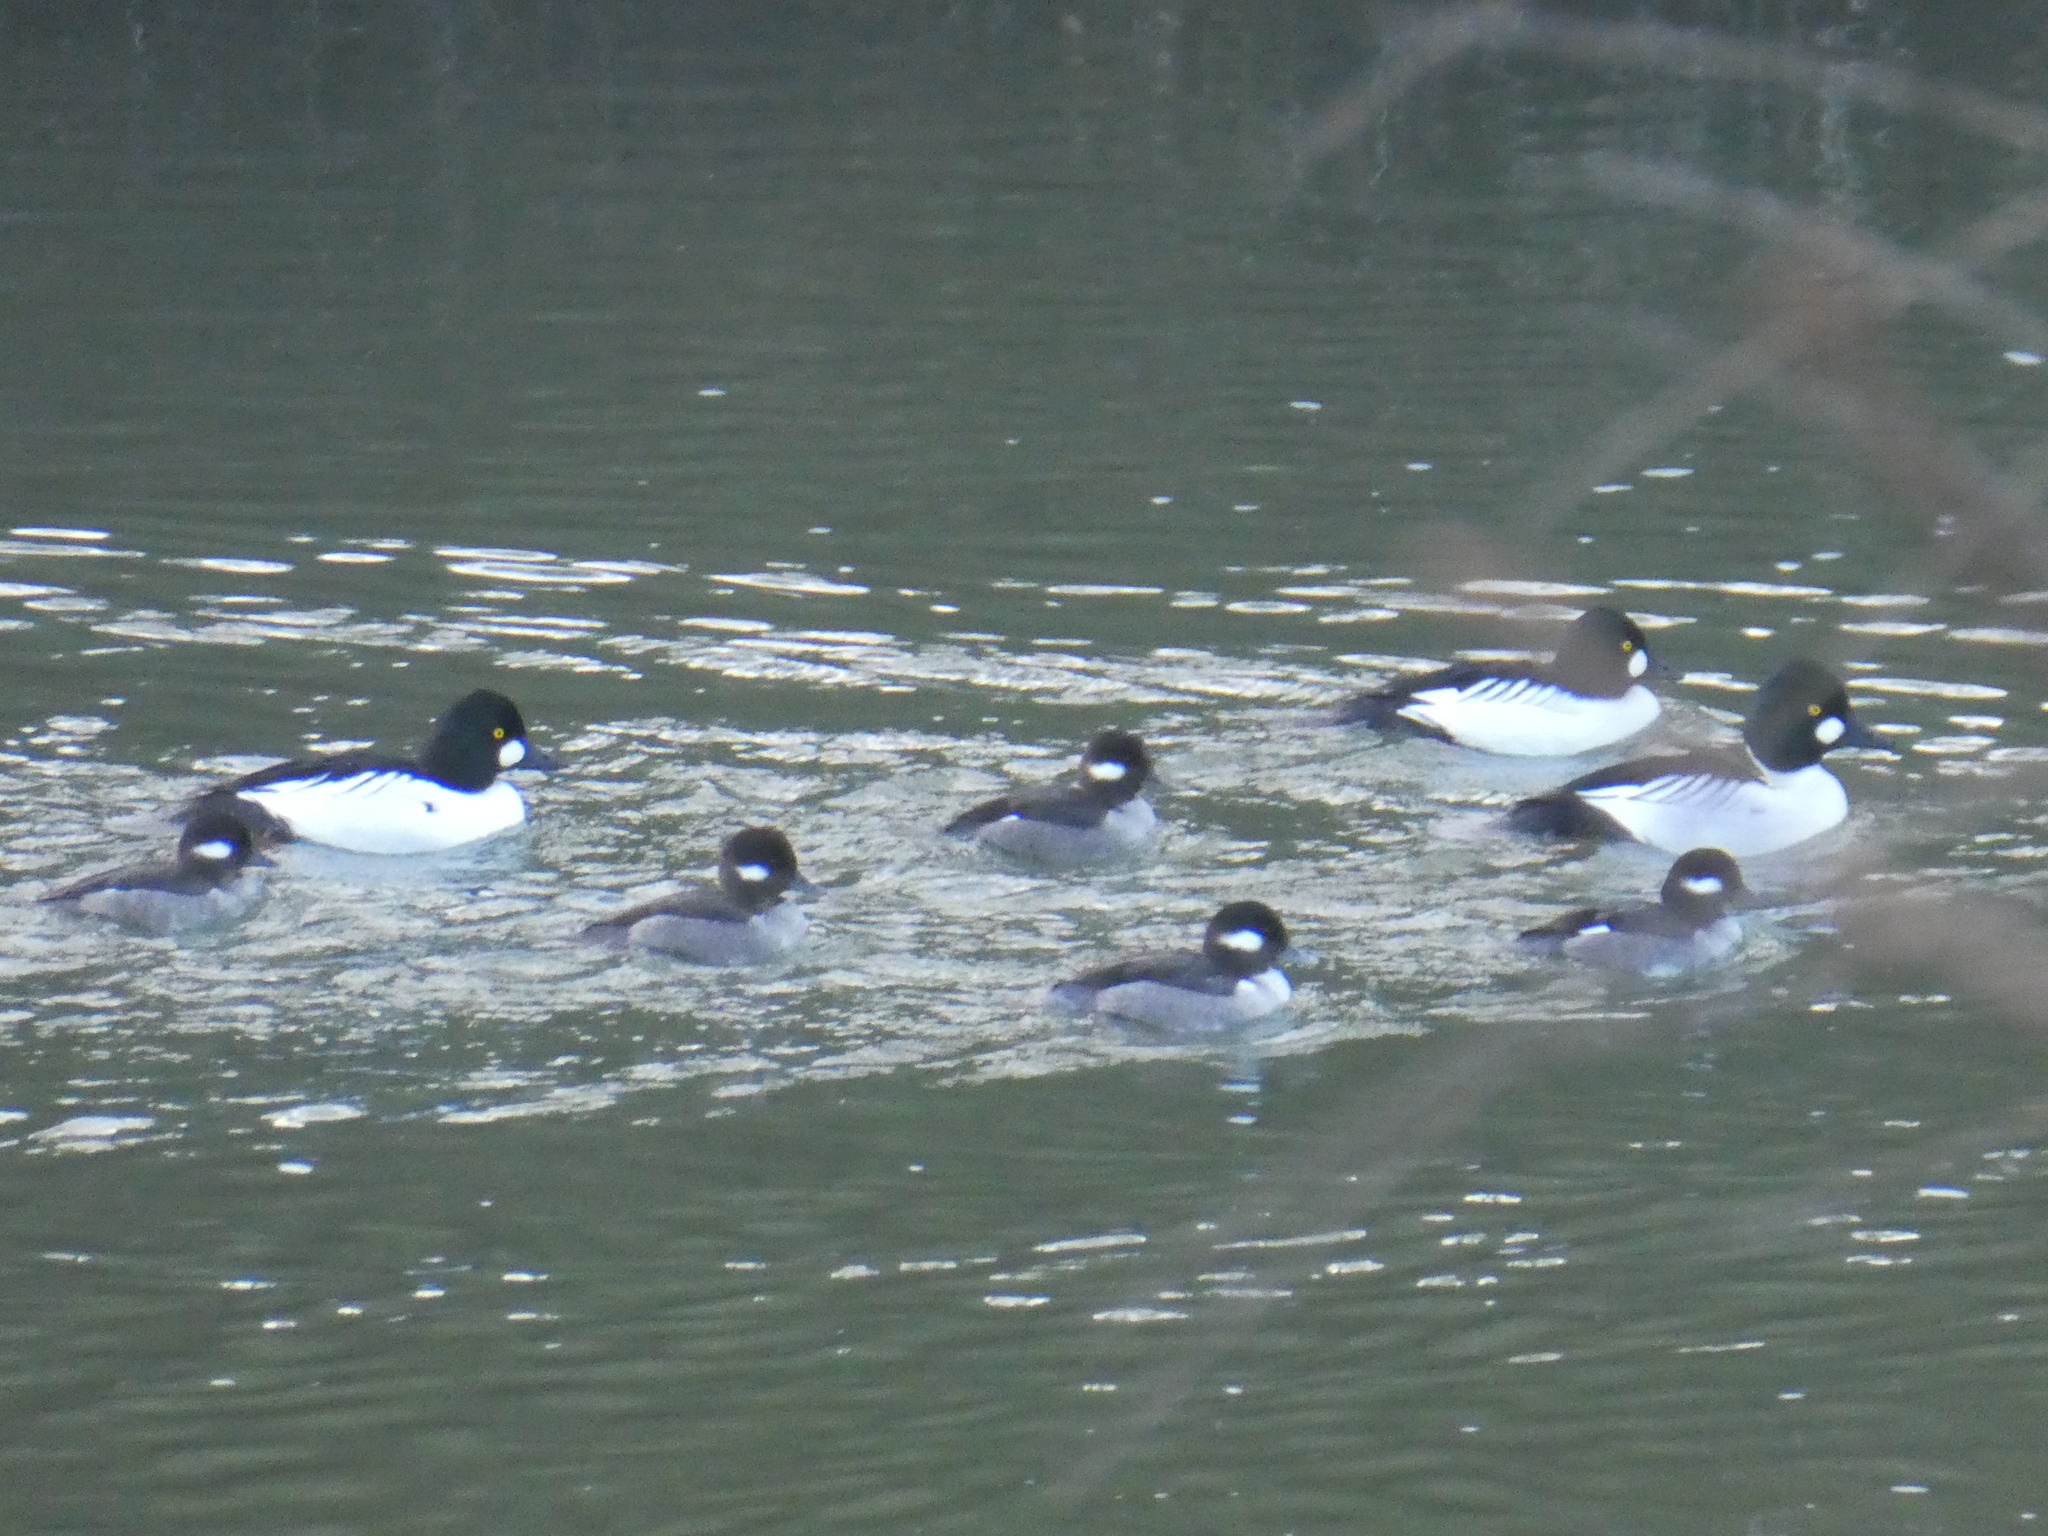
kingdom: Animalia
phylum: Chordata
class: Aves
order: Anseriformes
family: Anatidae
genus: Bucephala
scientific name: Bucephala albeola
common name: Bufflehead
